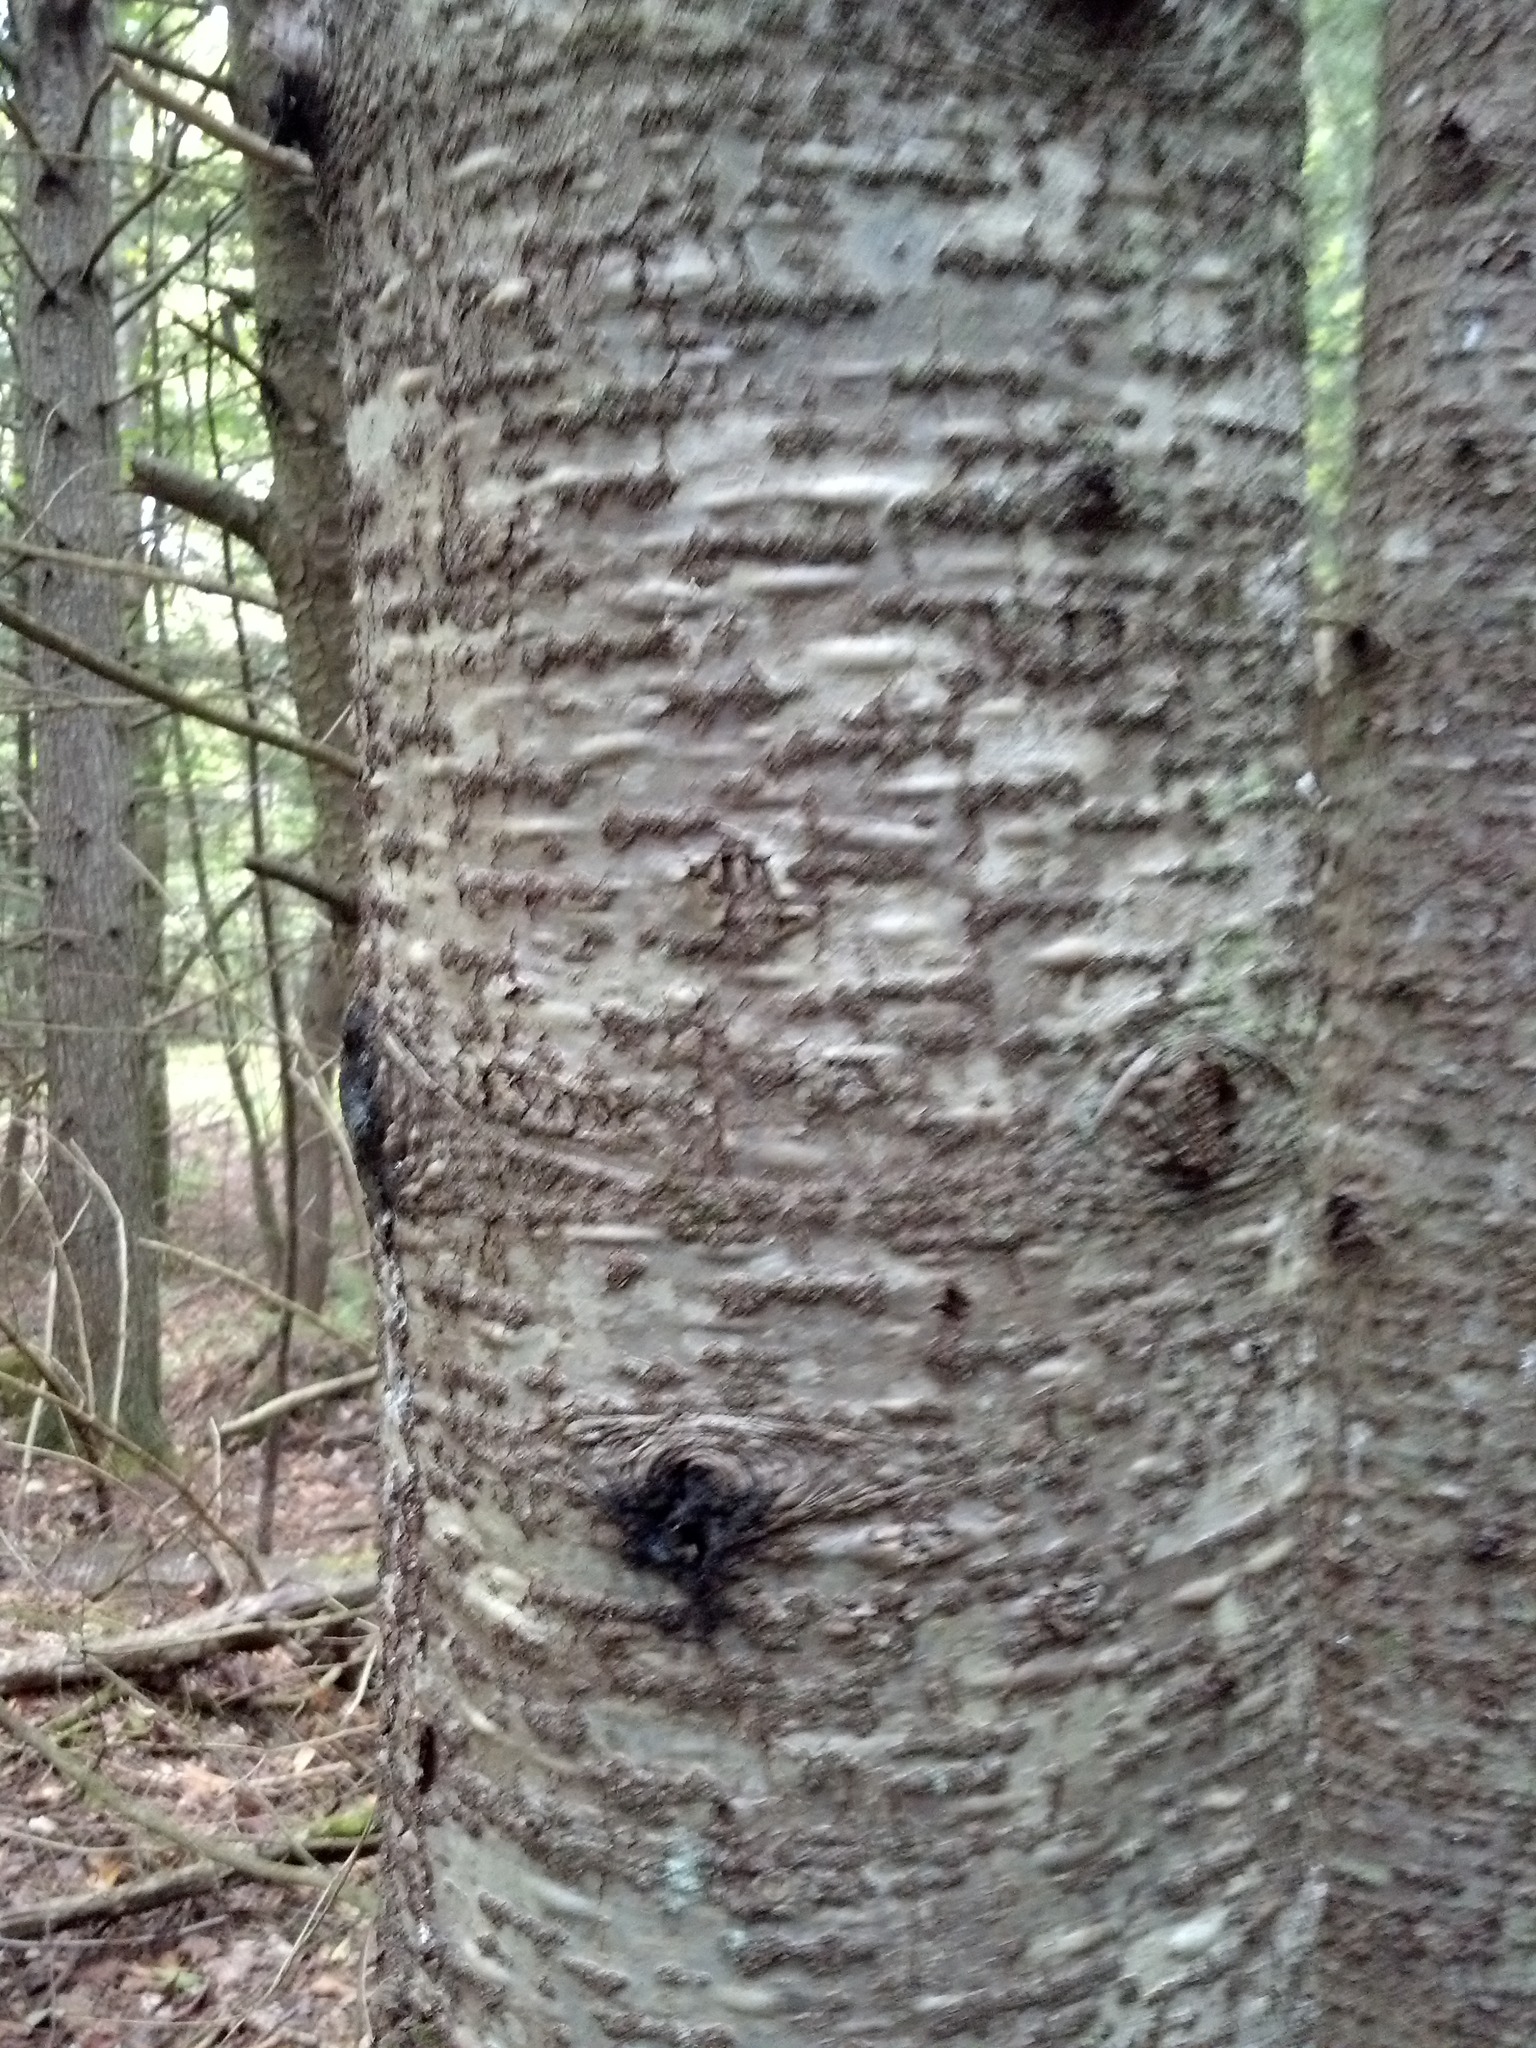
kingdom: Plantae
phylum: Tracheophyta
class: Pinopsida
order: Pinales
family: Pinaceae
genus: Abies
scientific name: Abies balsamea
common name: Balsam fir
